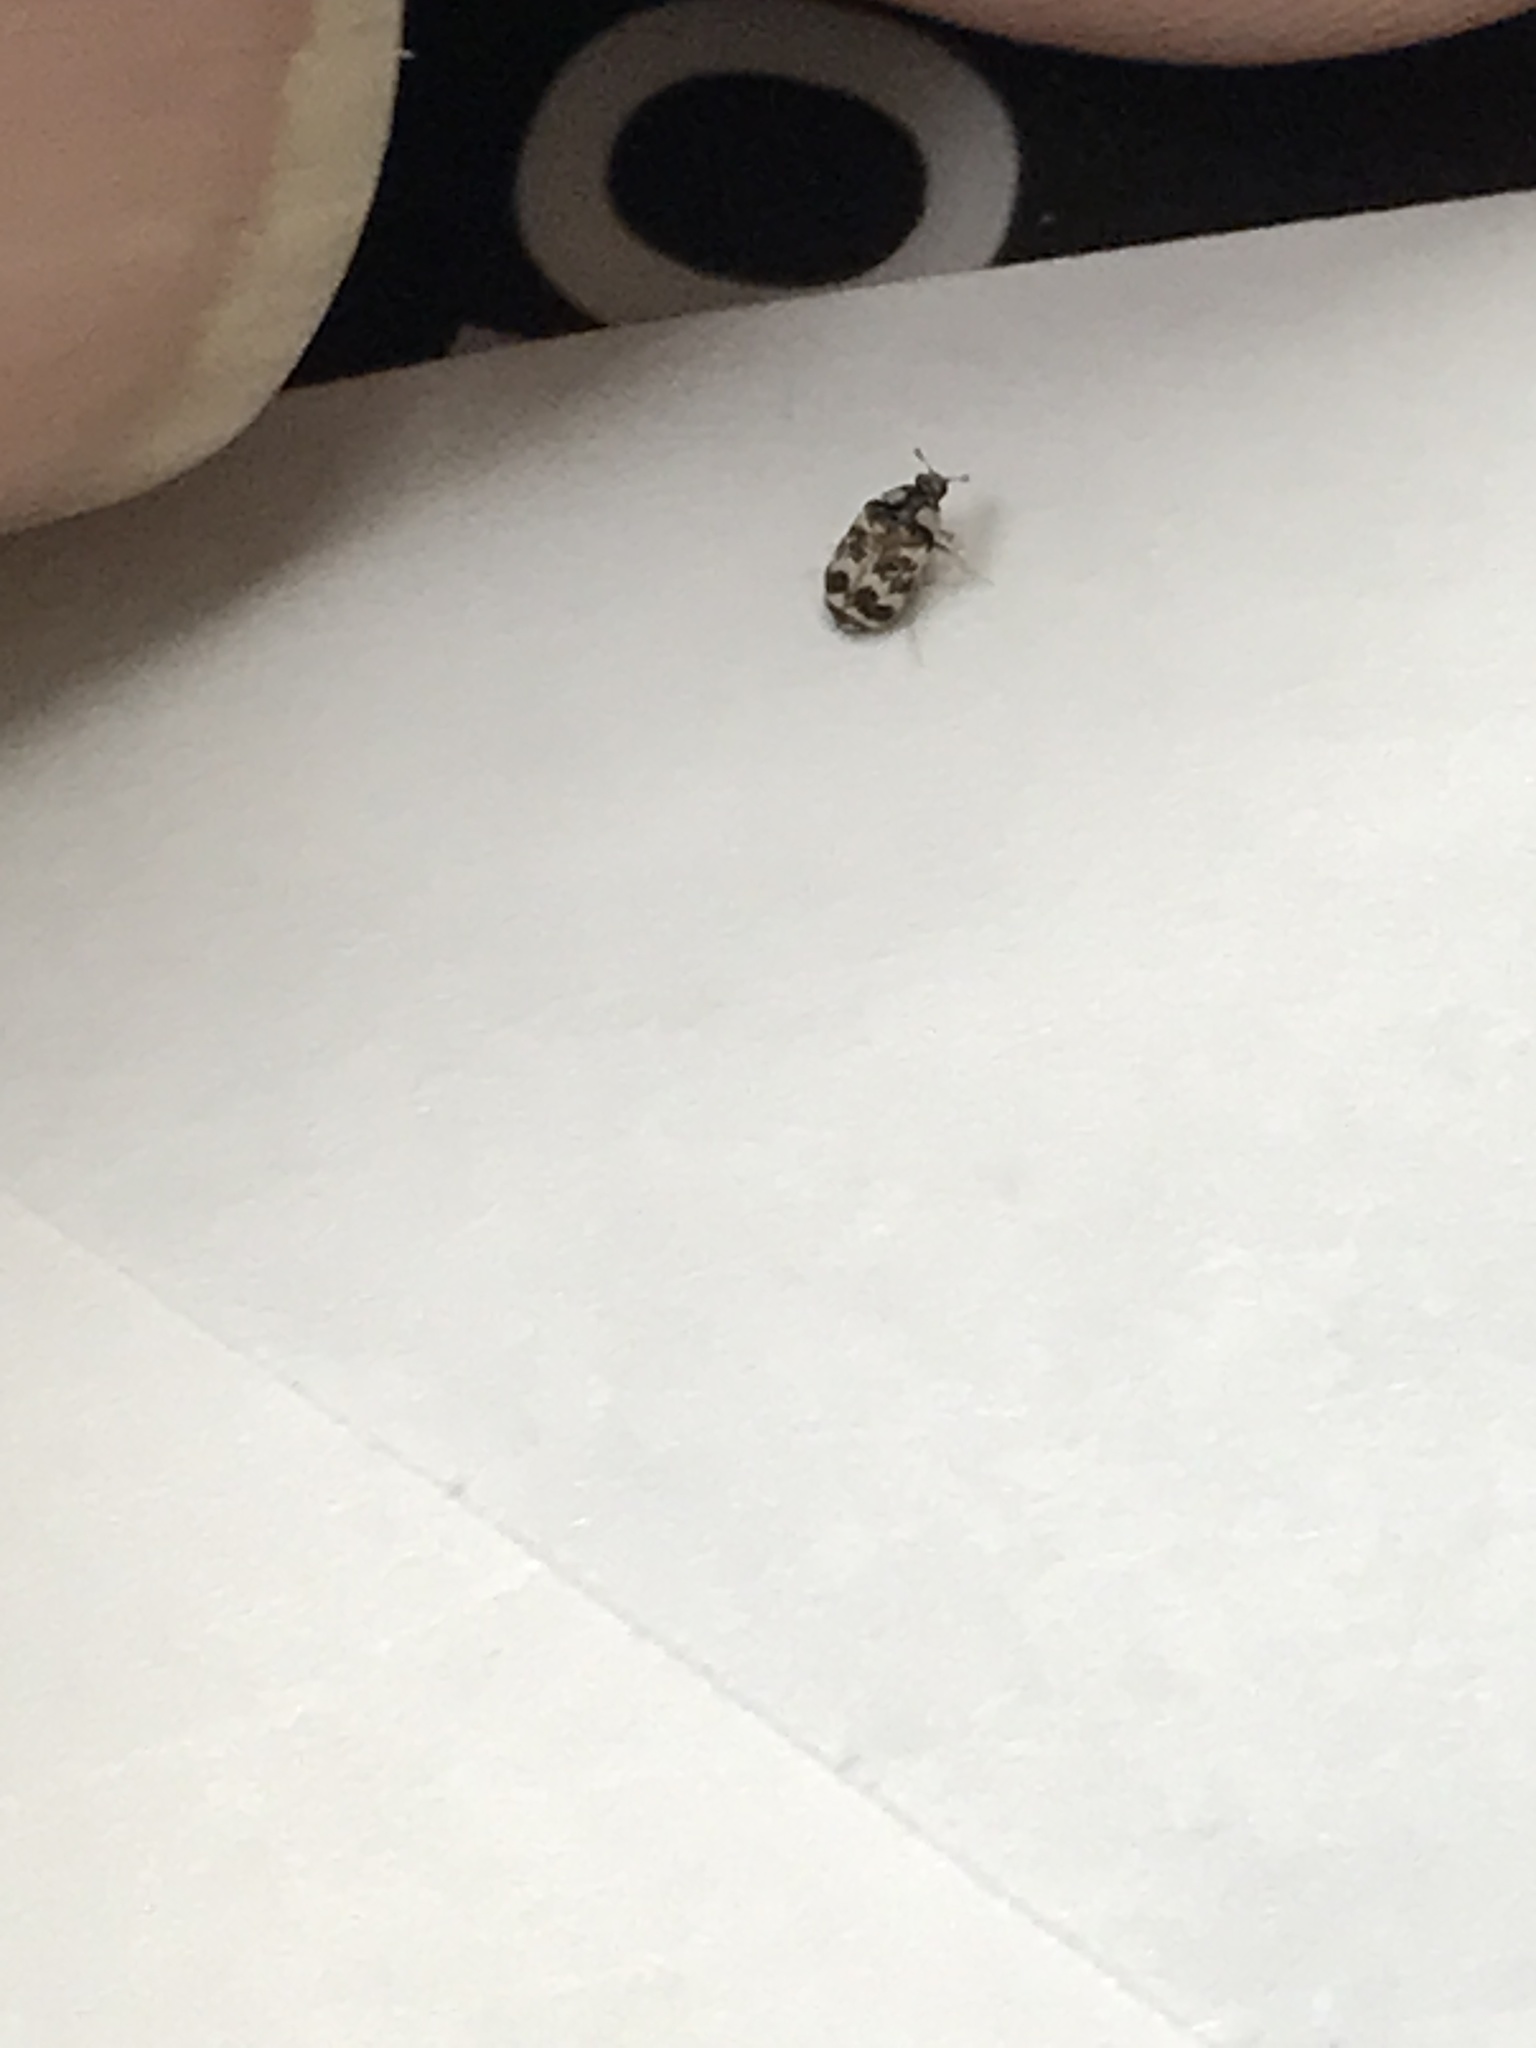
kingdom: Animalia
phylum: Arthropoda
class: Insecta
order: Coleoptera
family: Dermestidae
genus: Anthrenus
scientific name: Anthrenus coloratus
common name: Auger beetle
